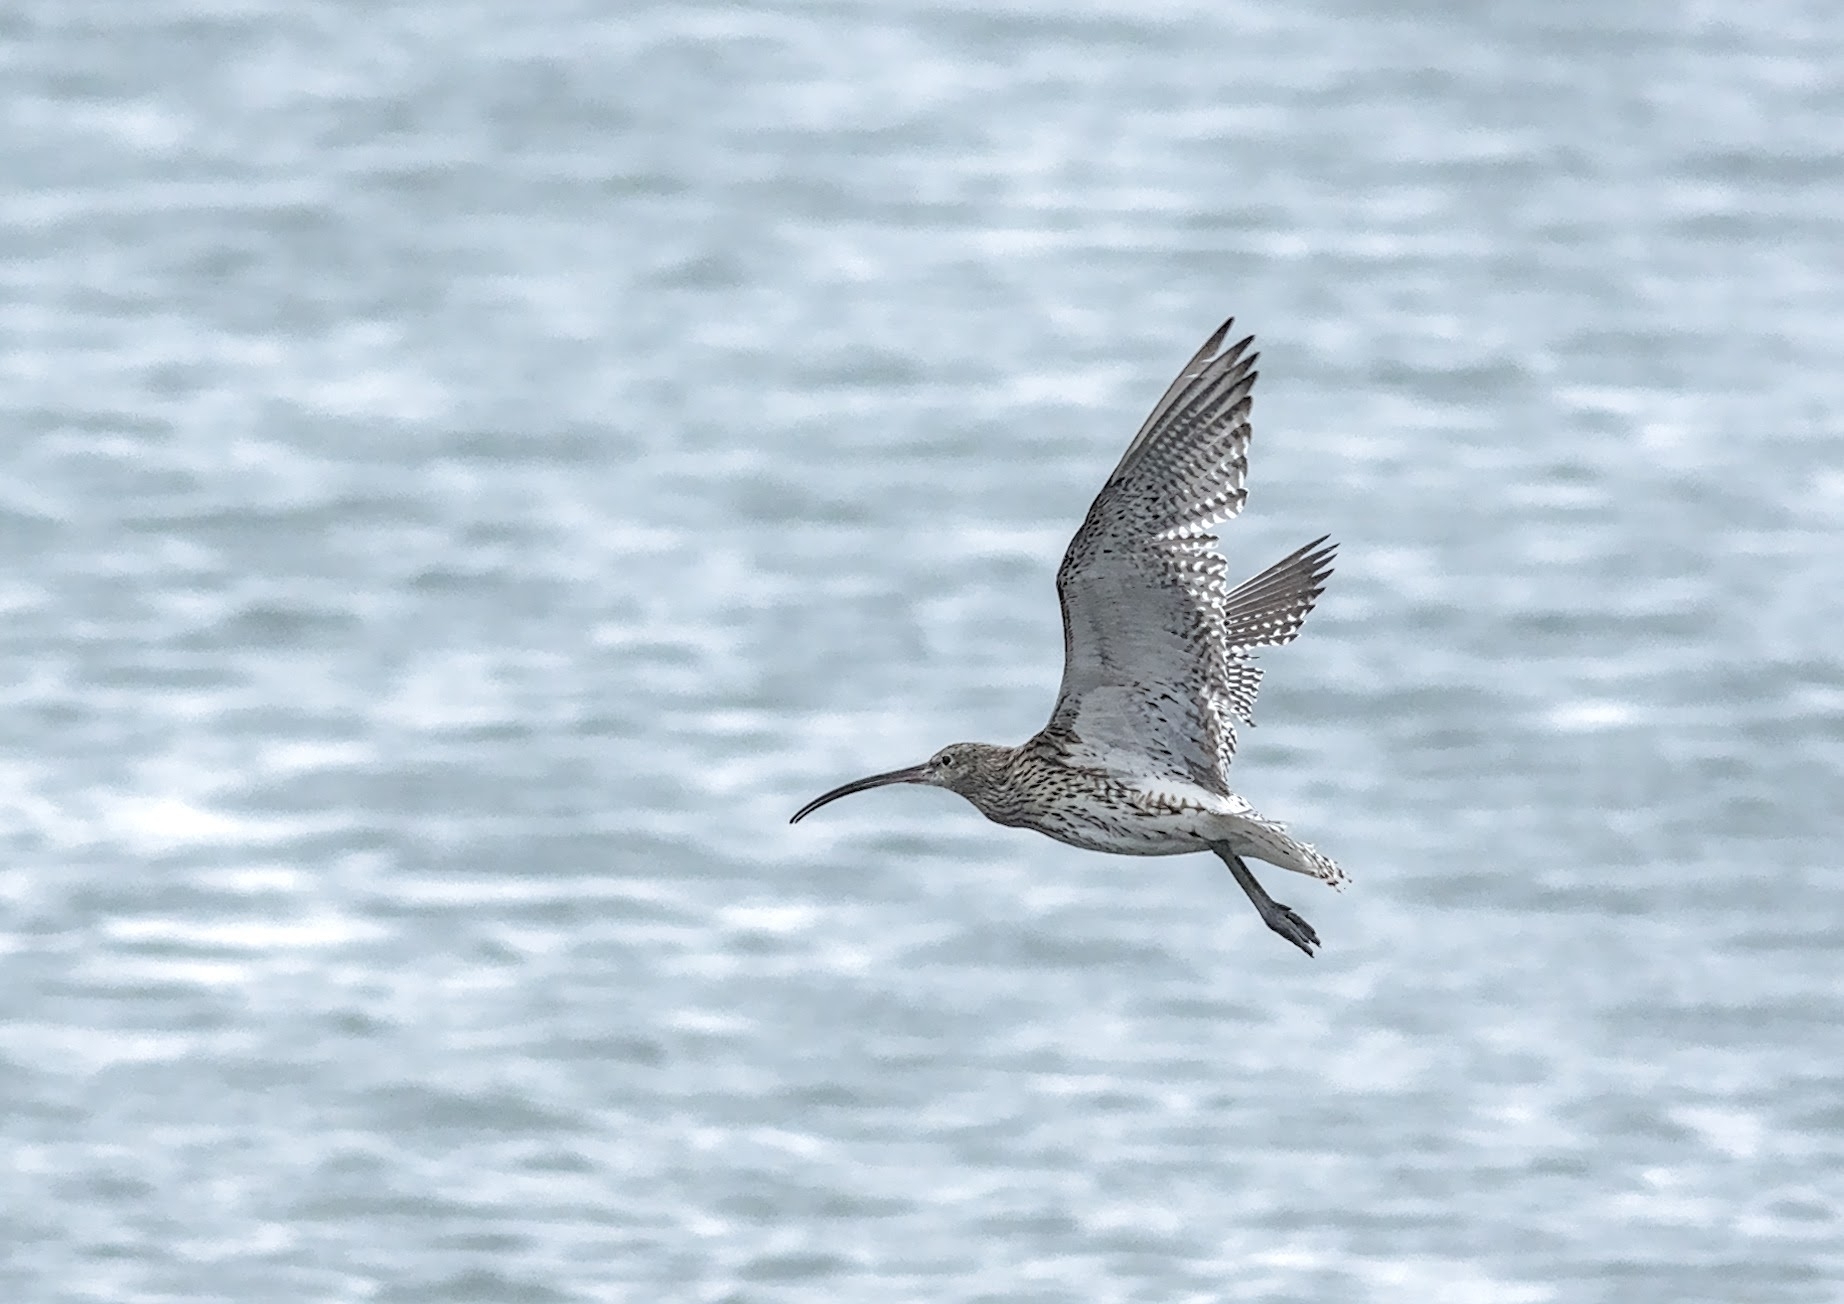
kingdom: Animalia
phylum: Chordata
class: Aves
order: Charadriiformes
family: Scolopacidae
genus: Numenius
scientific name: Numenius arquata
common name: Eurasian curlew
